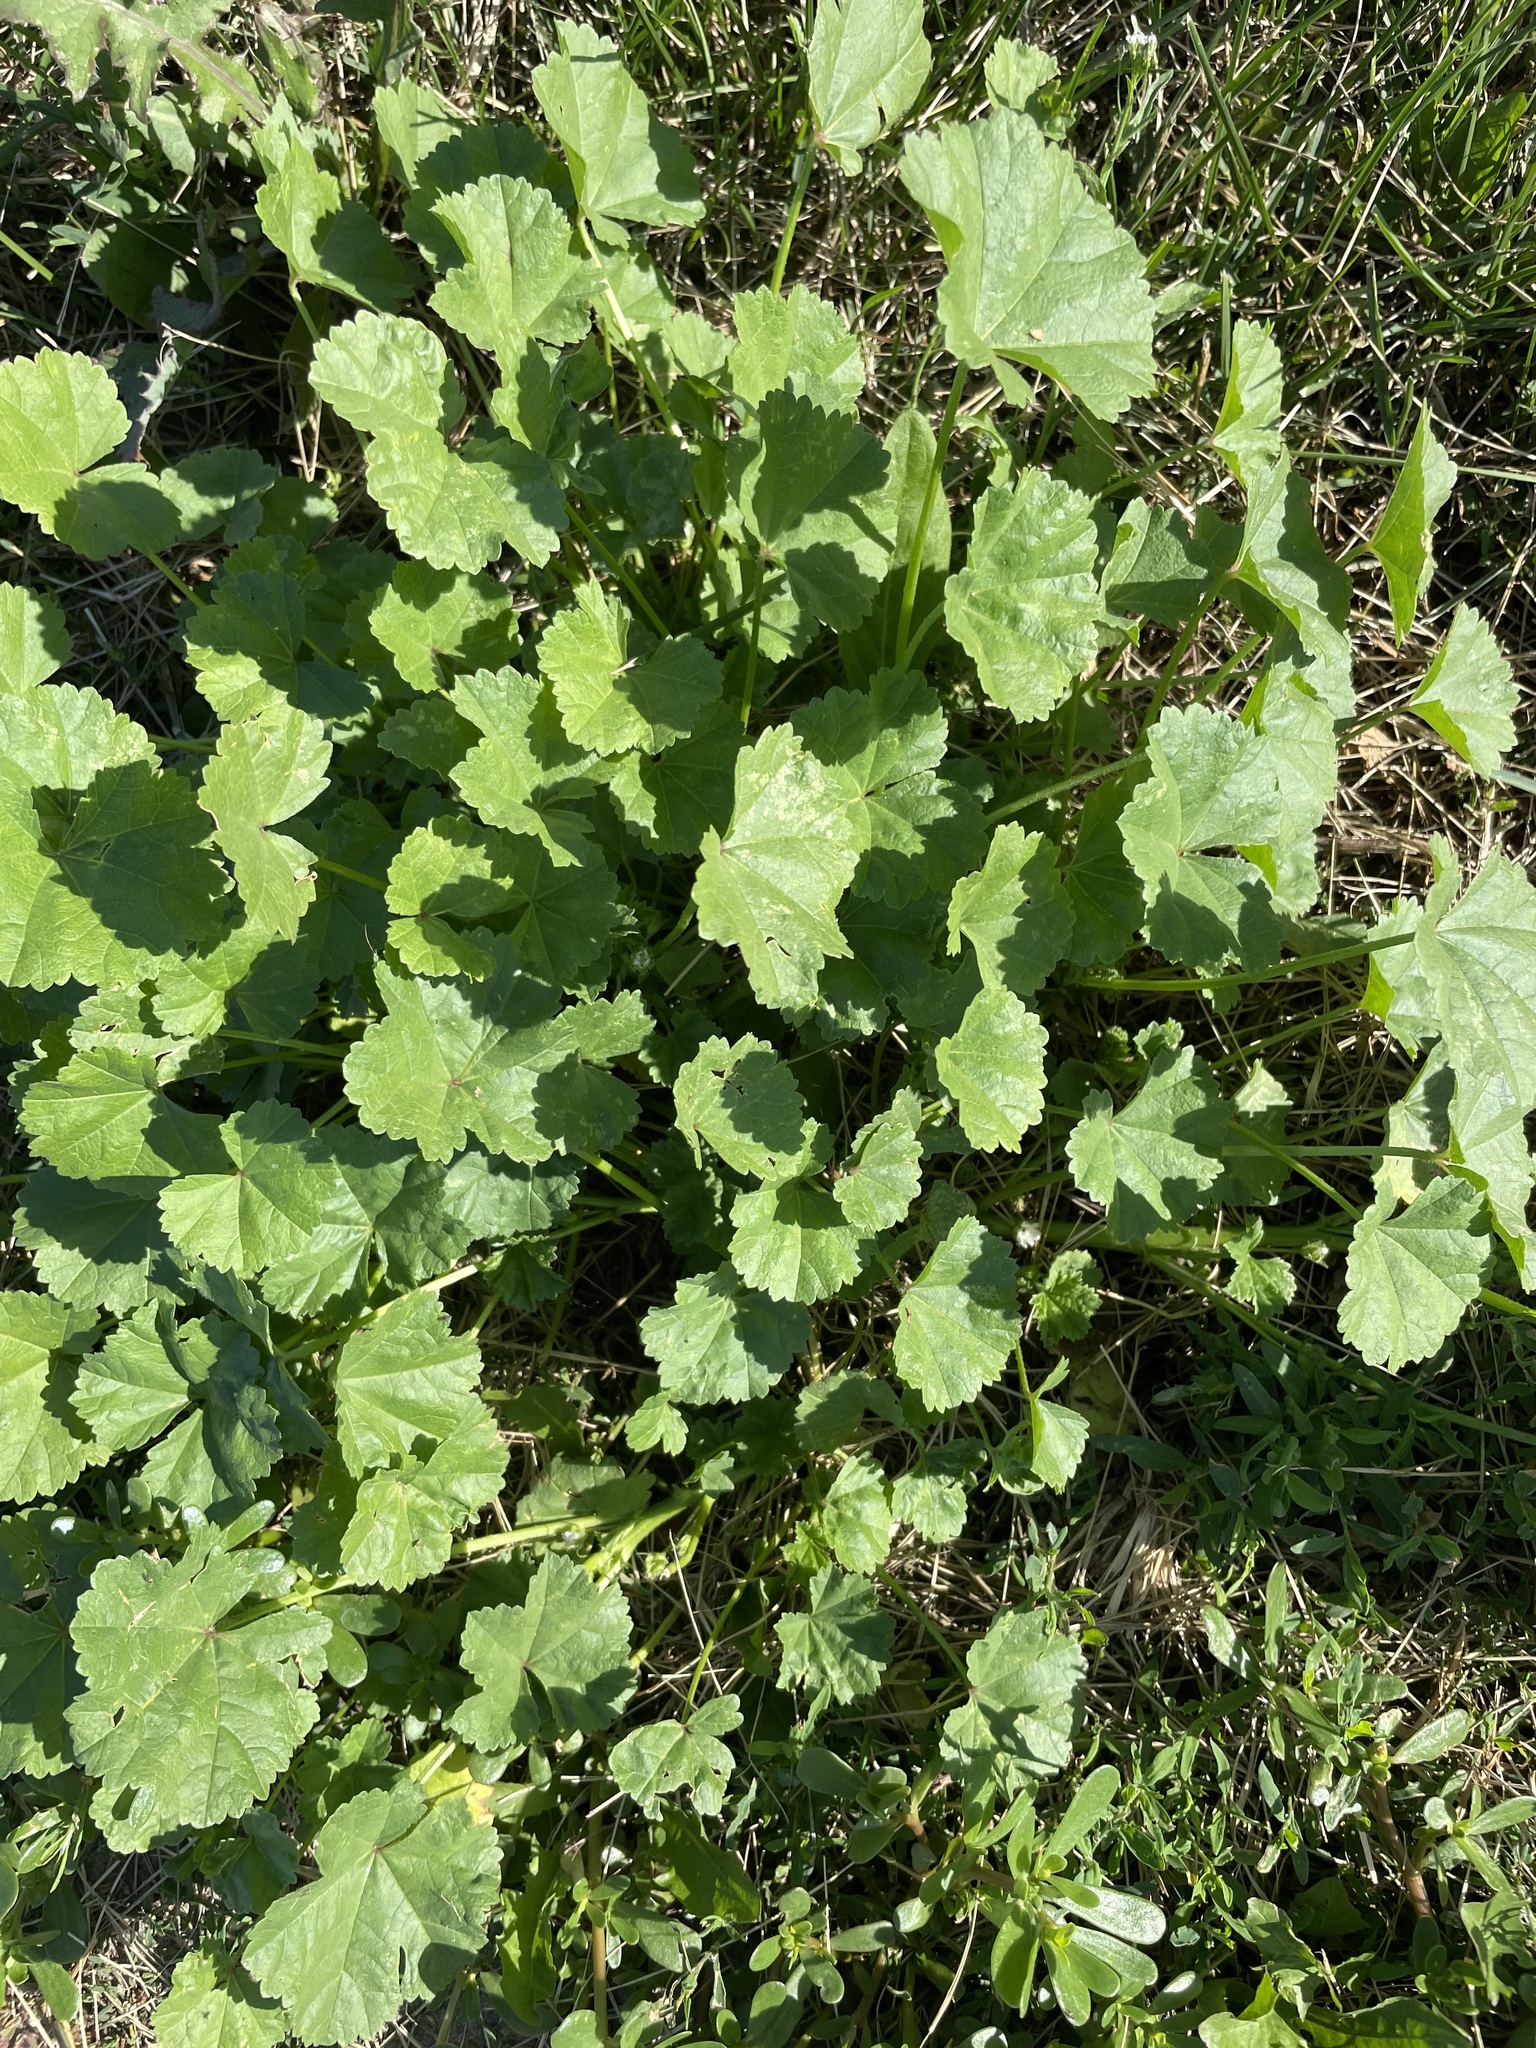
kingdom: Plantae
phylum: Tracheophyta
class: Magnoliopsida
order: Malvales
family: Malvaceae
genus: Malva
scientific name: Malva pusilla
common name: Small mallow
